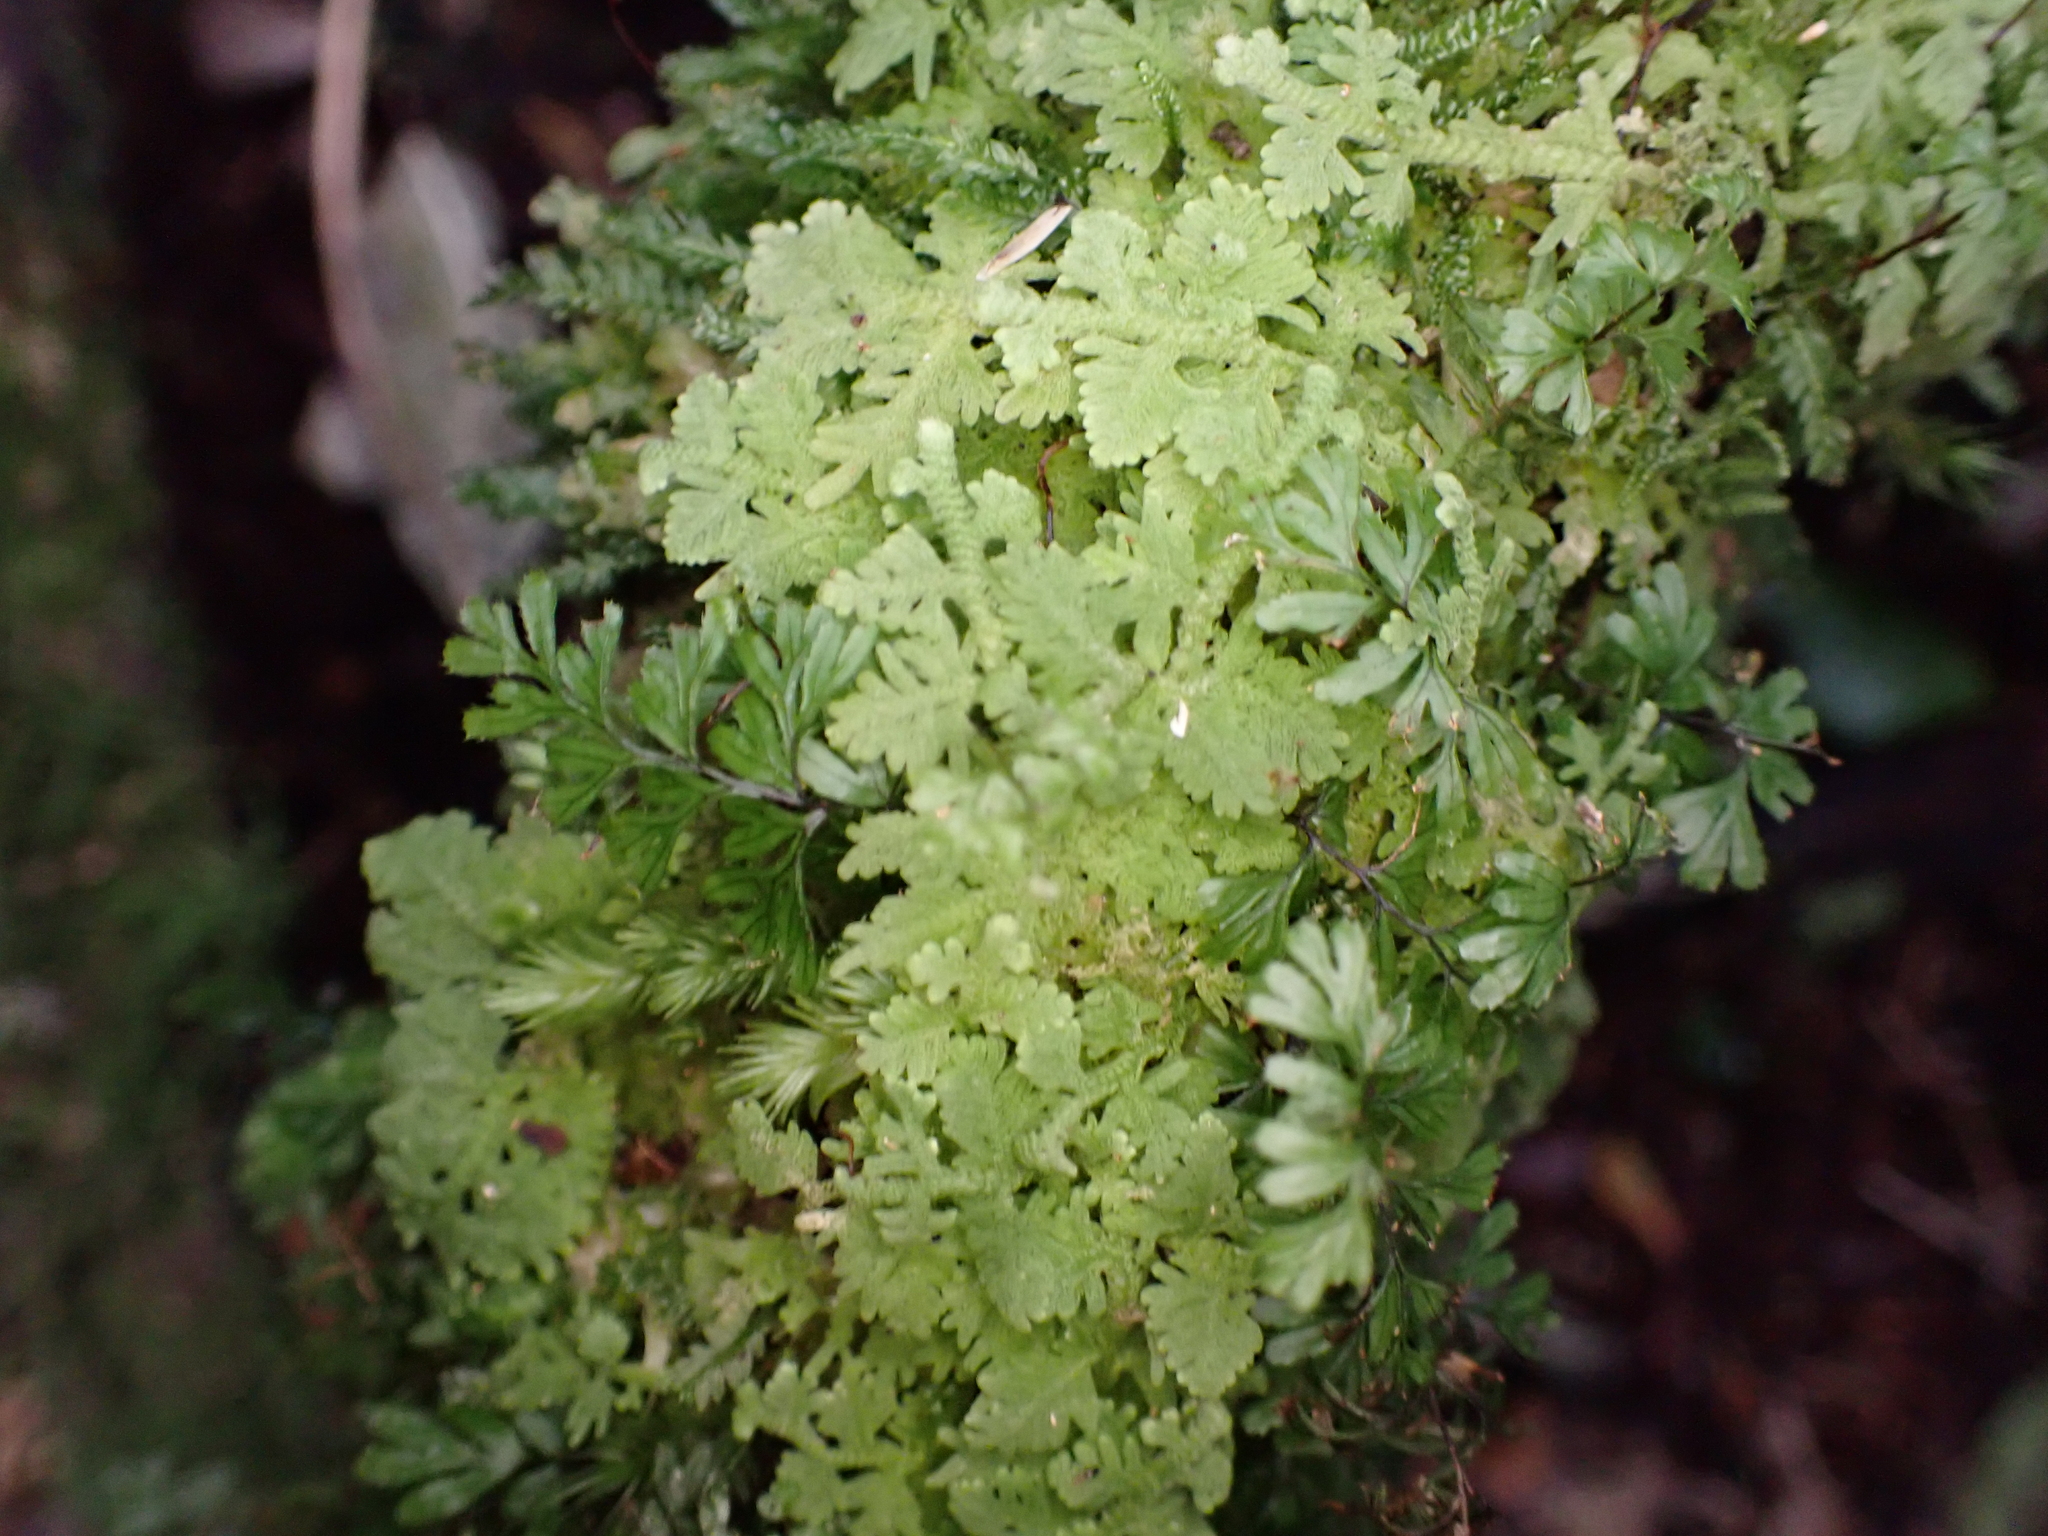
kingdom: Plantae
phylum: Marchantiophyta
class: Jungermanniopsida
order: Jungermanniales
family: Trichocoleaceae
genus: Trichocolea
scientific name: Trichocolea mollissima
